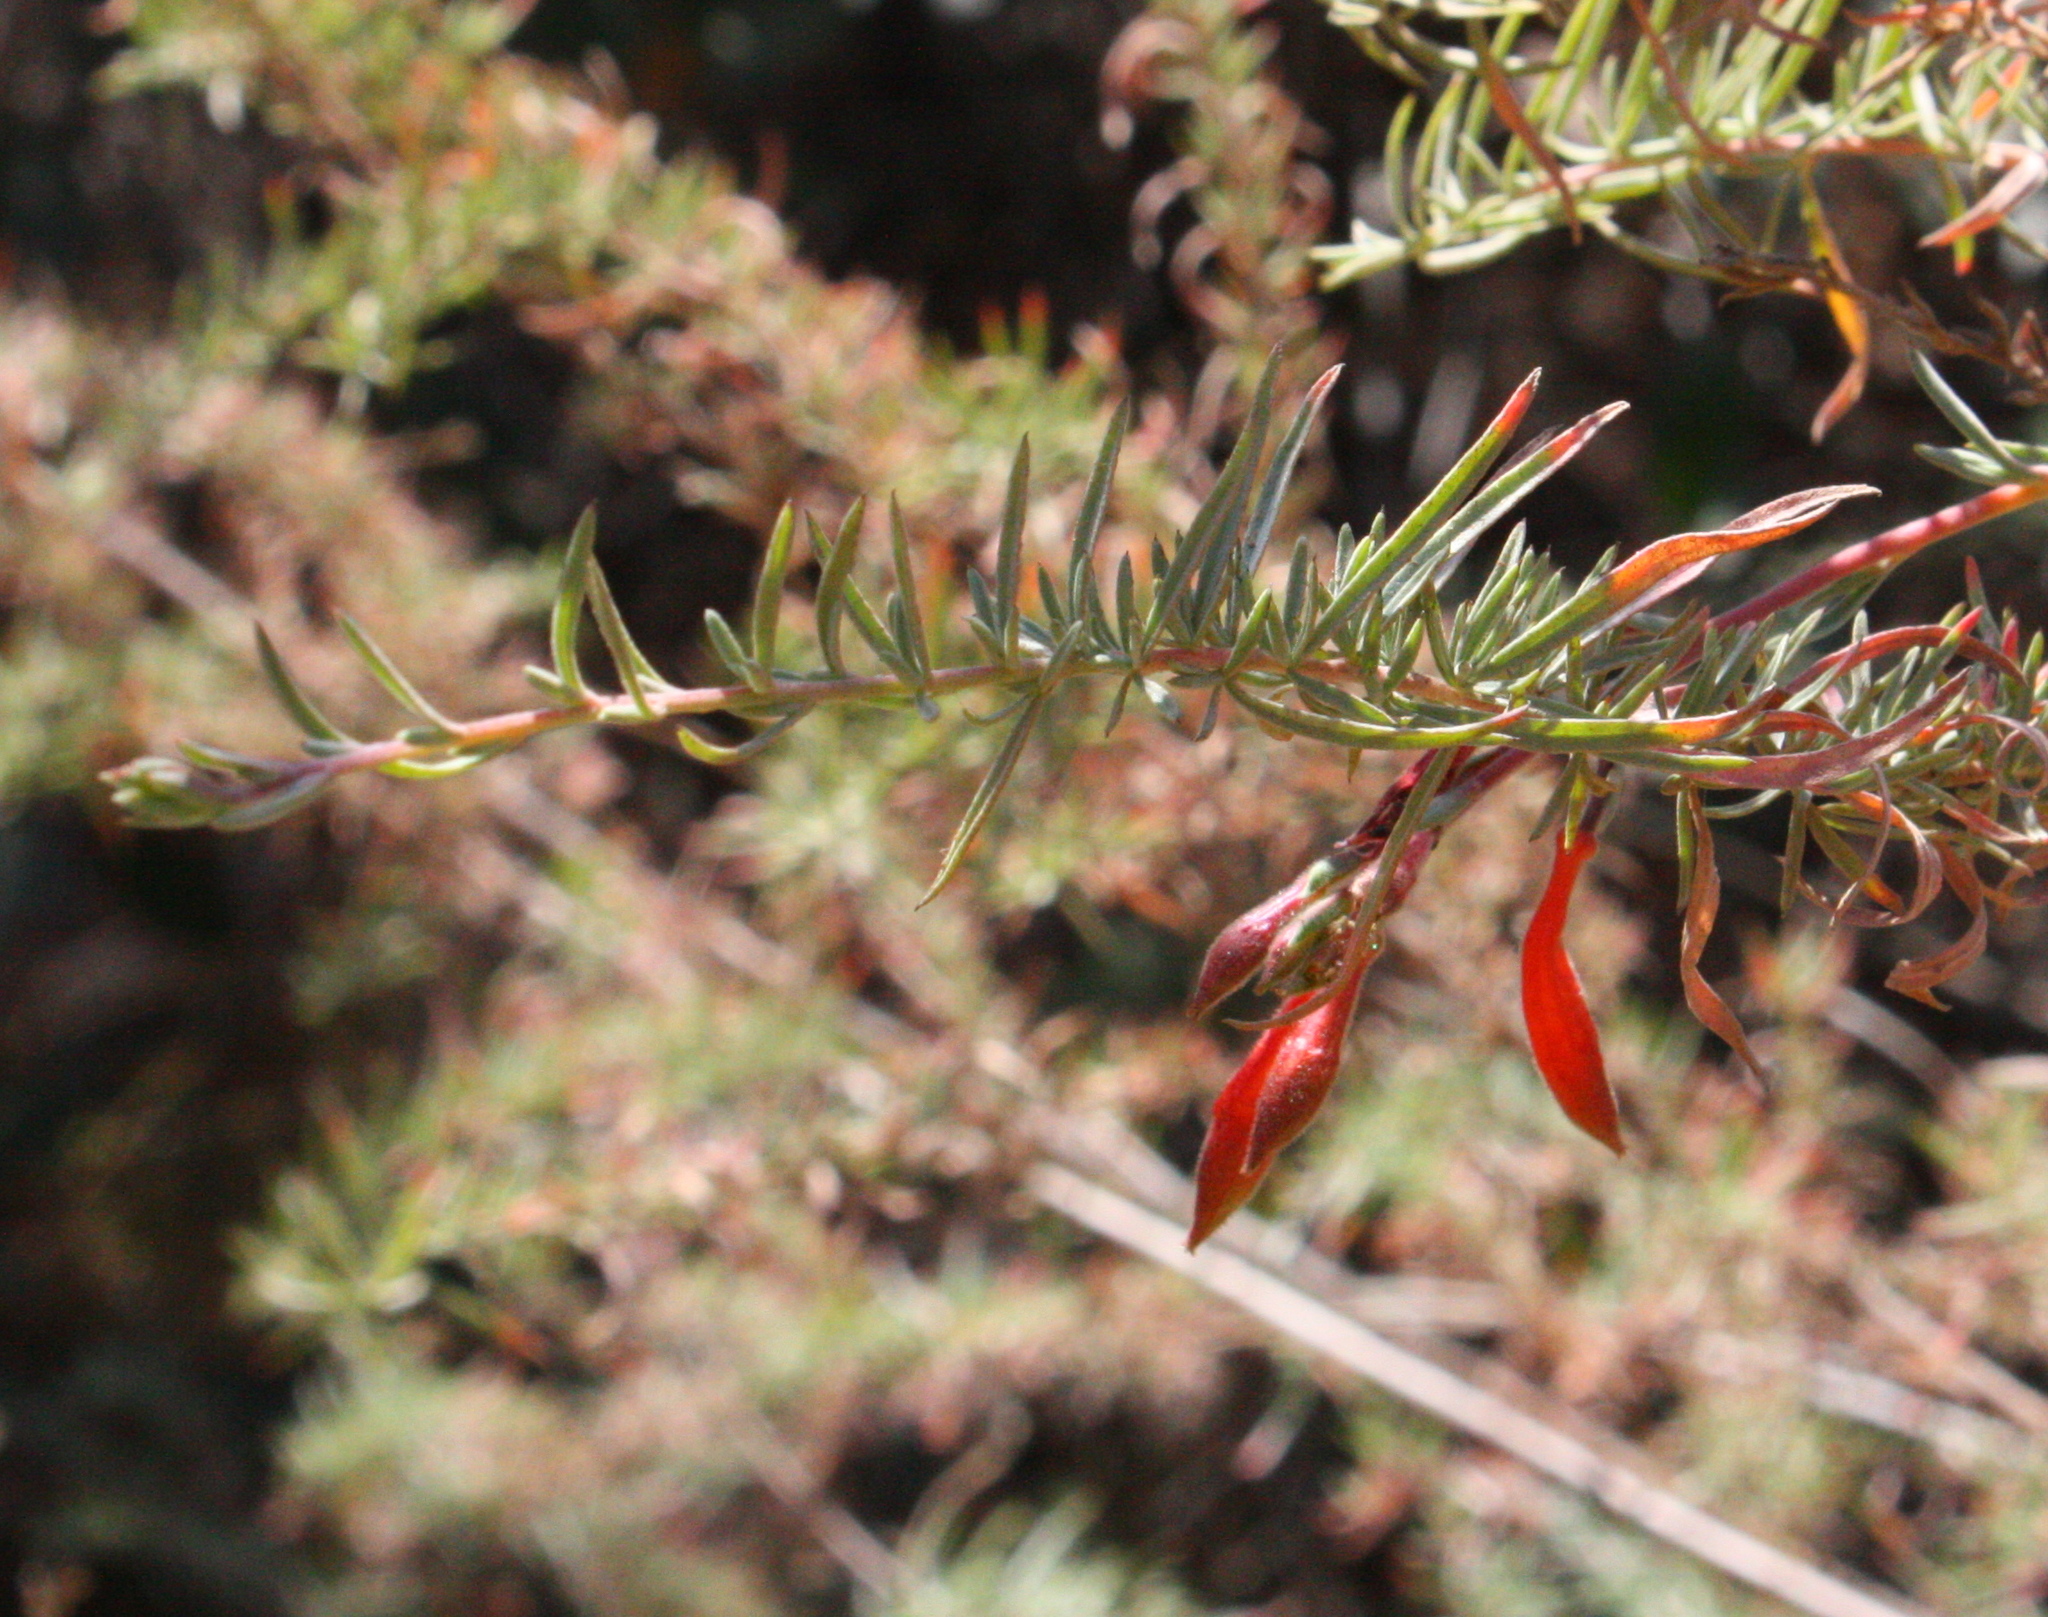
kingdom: Plantae
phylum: Tracheophyta
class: Magnoliopsida
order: Myrtales
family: Onagraceae
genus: Epilobium
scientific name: Epilobium canum
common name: California-fuchsia
